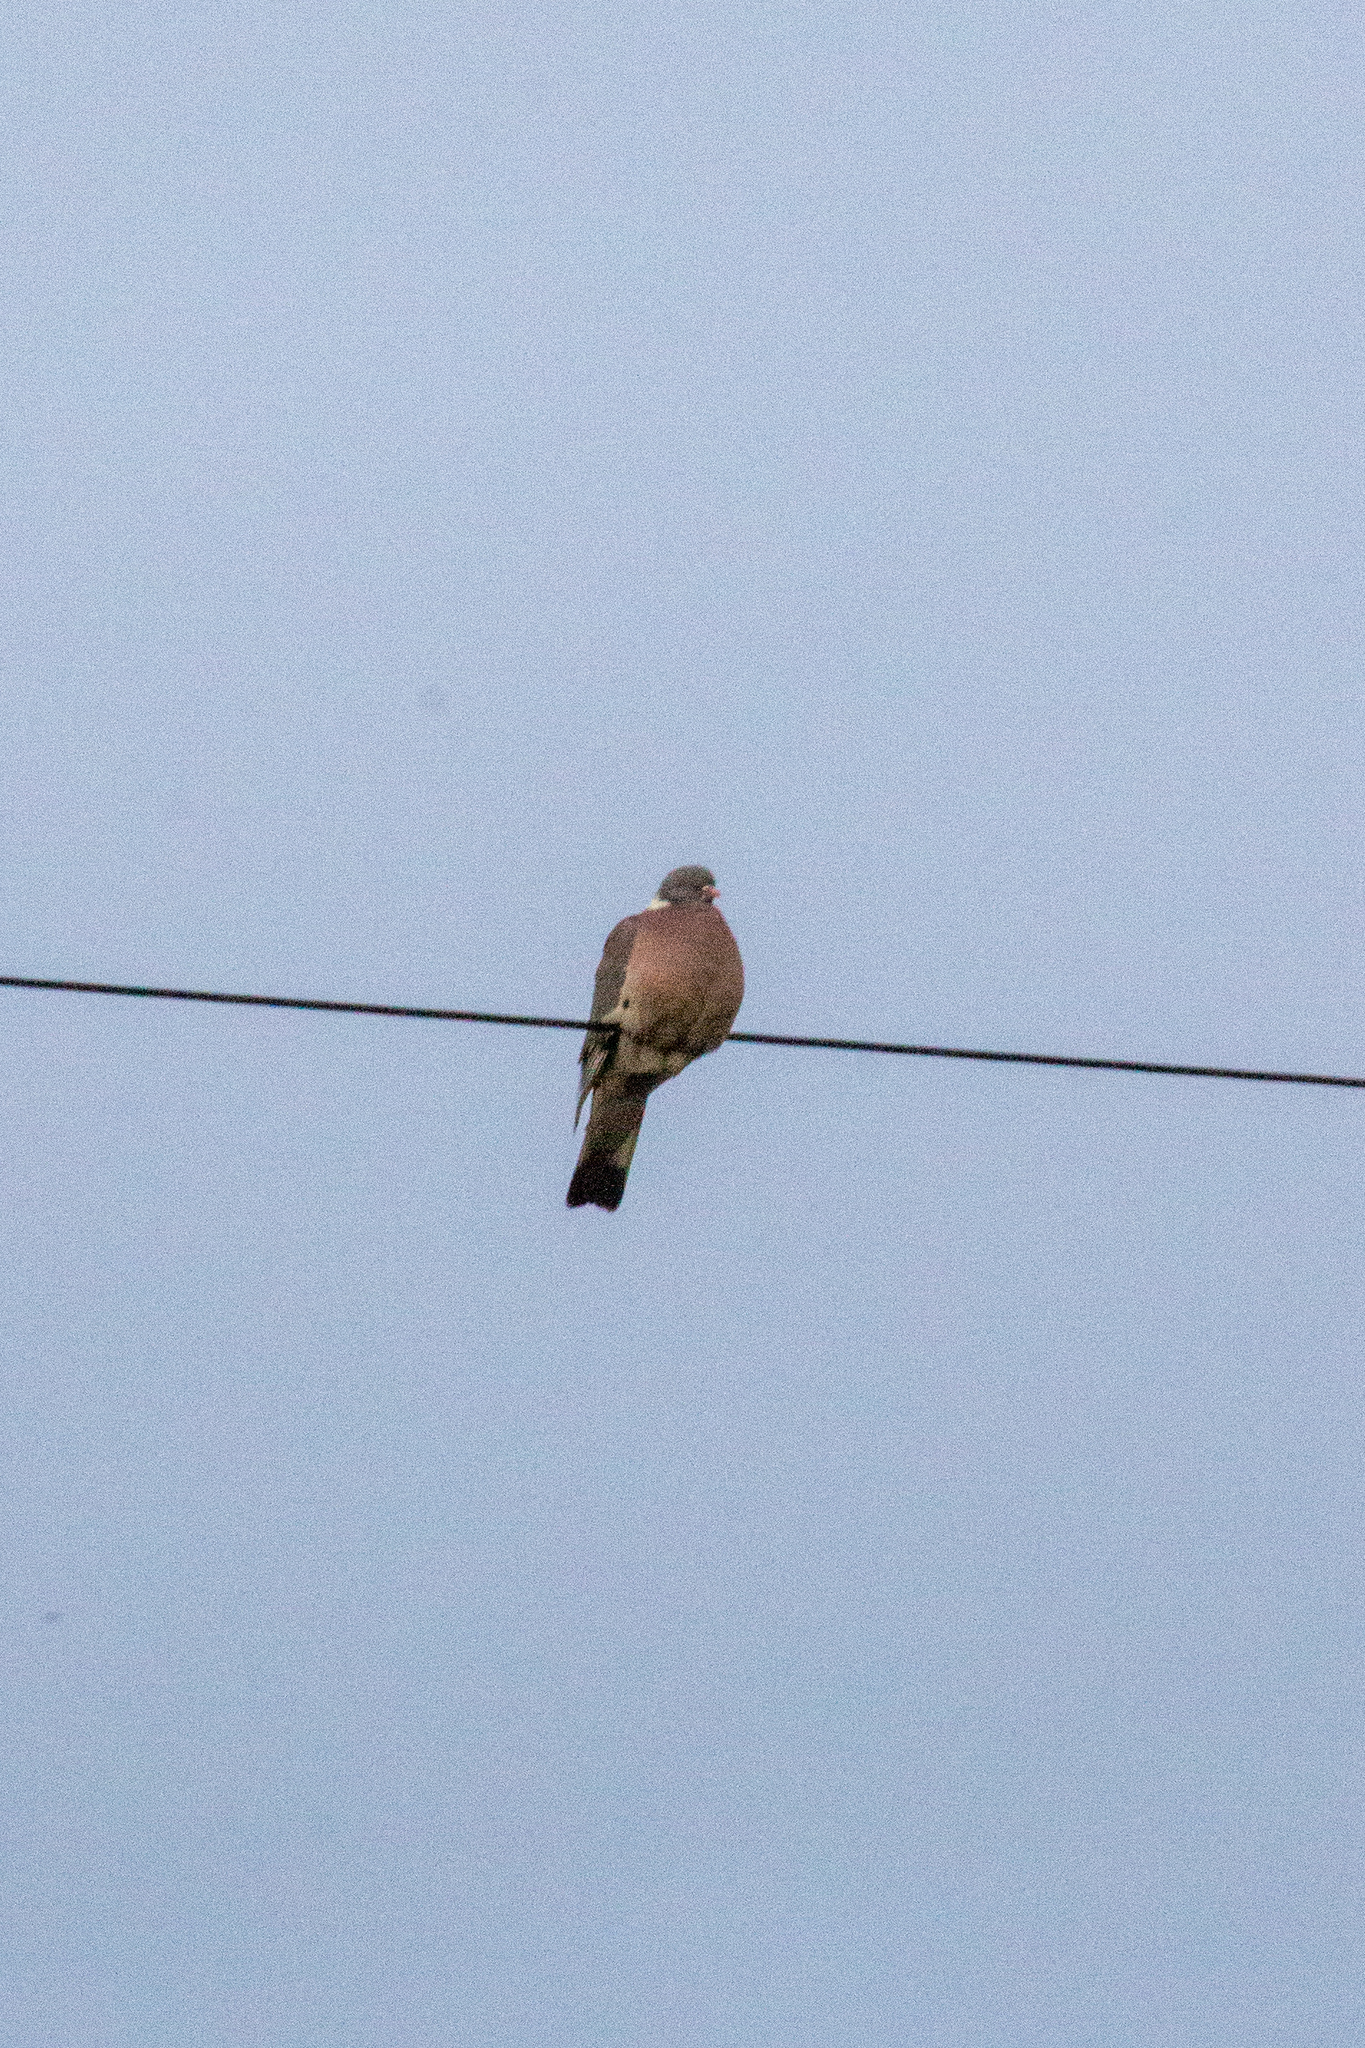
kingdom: Animalia
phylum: Chordata
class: Aves
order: Columbiformes
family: Columbidae
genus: Columba
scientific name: Columba palumbus
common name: Common wood pigeon
